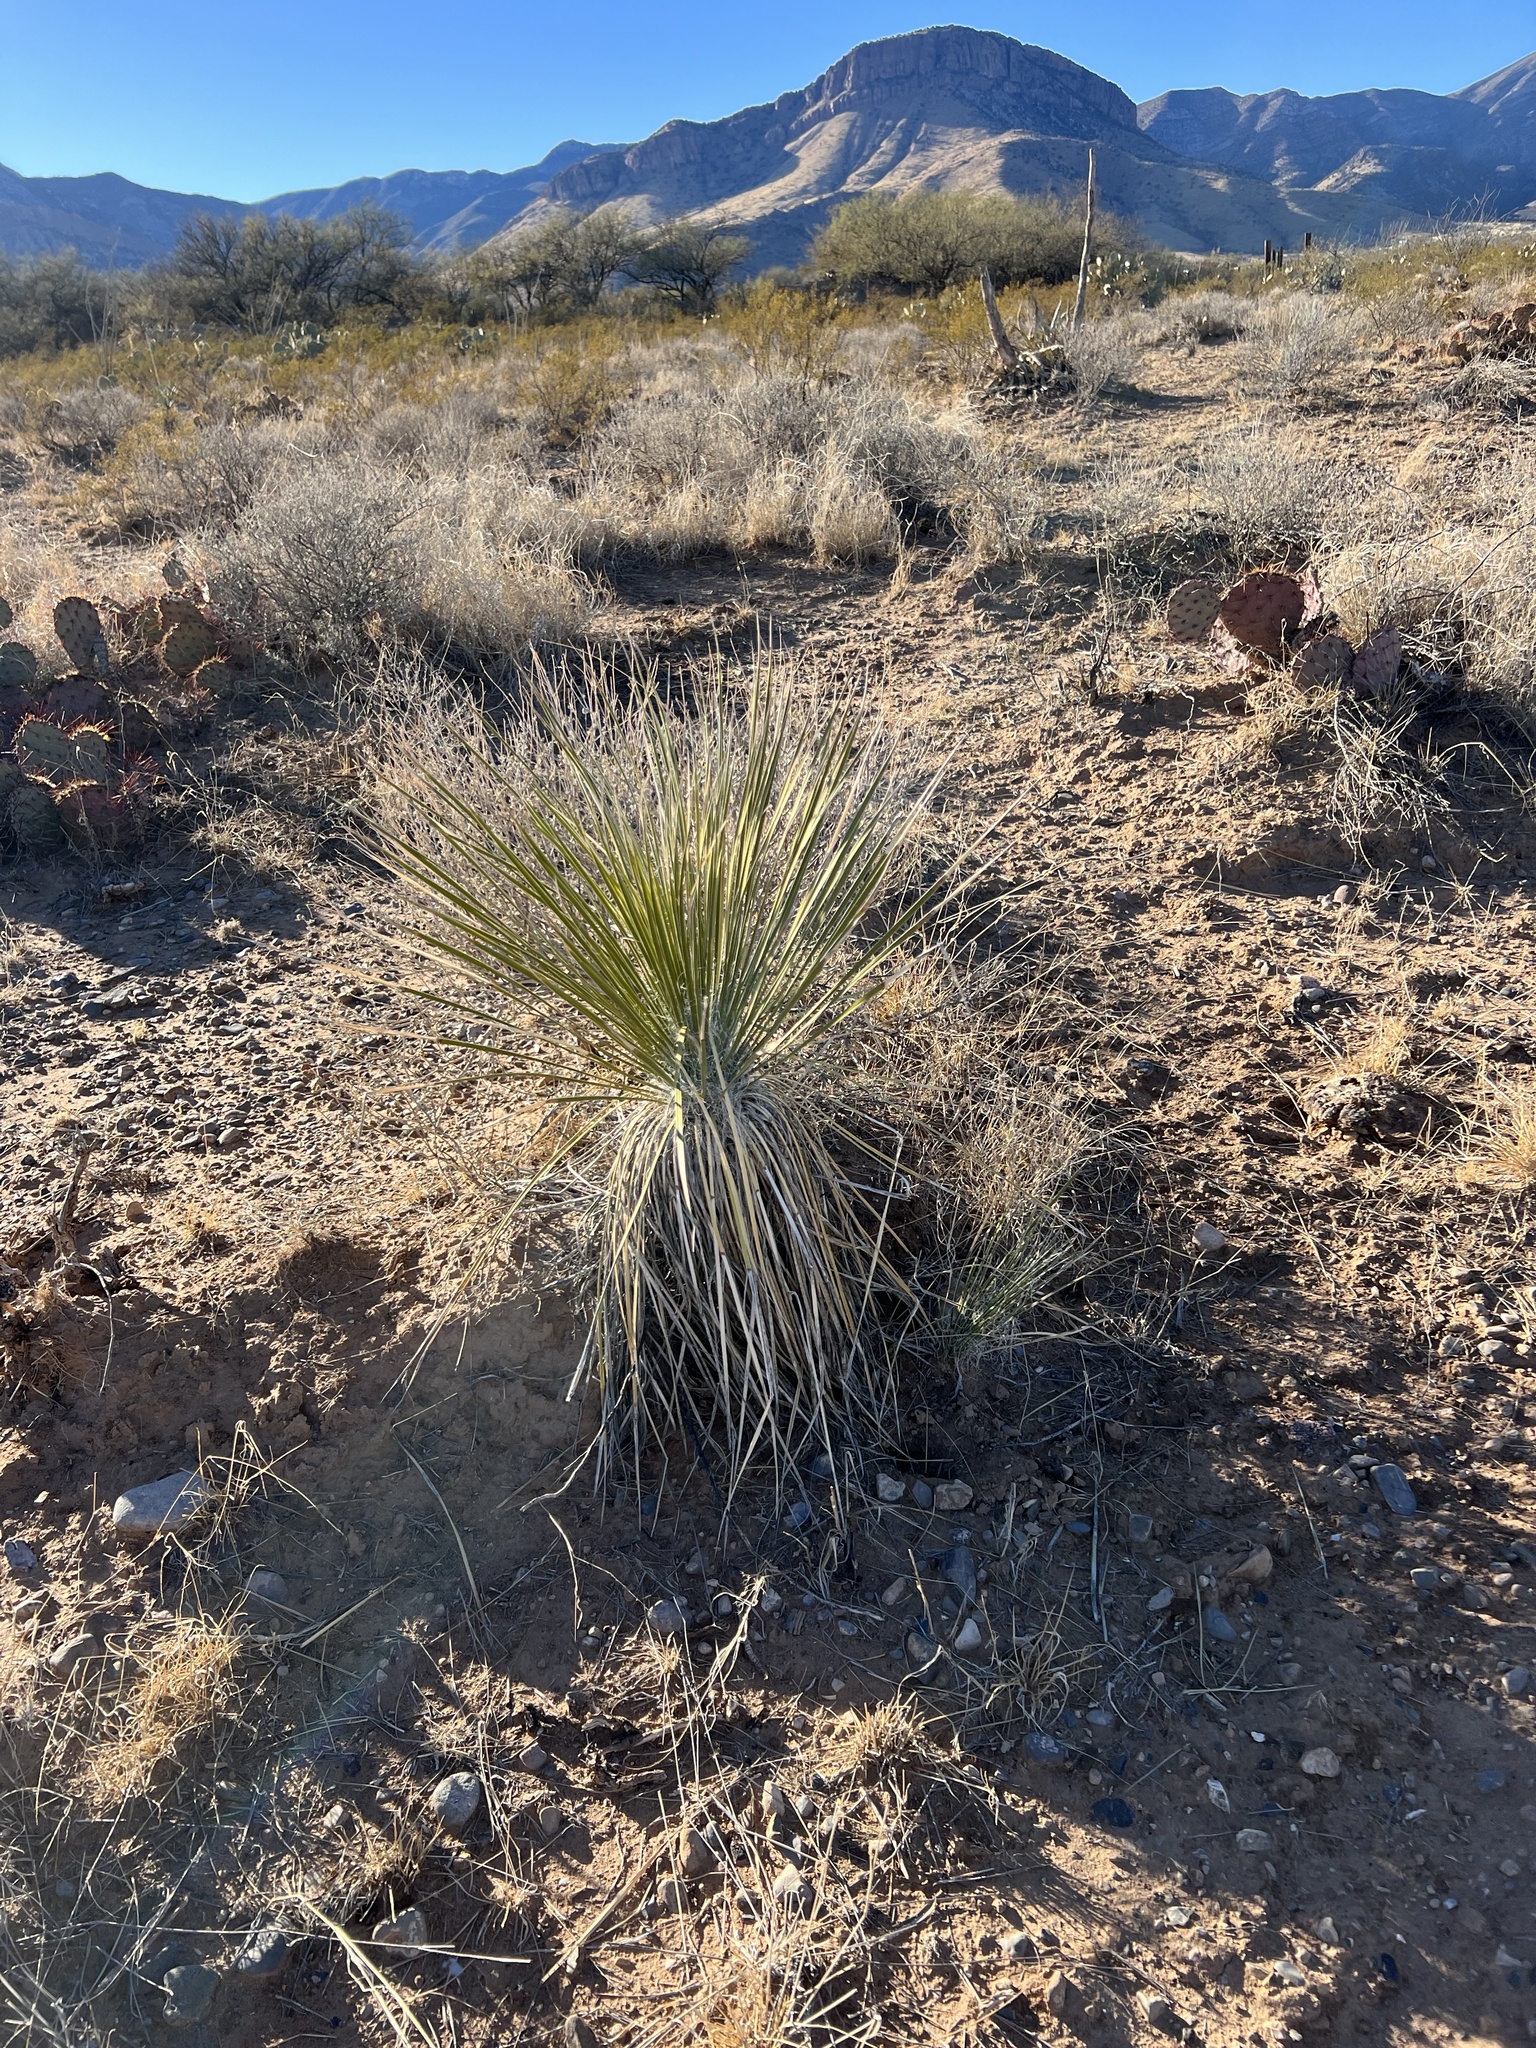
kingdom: Plantae
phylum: Tracheophyta
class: Liliopsida
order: Asparagales
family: Asparagaceae
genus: Yucca
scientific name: Yucca elata
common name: Palmella
